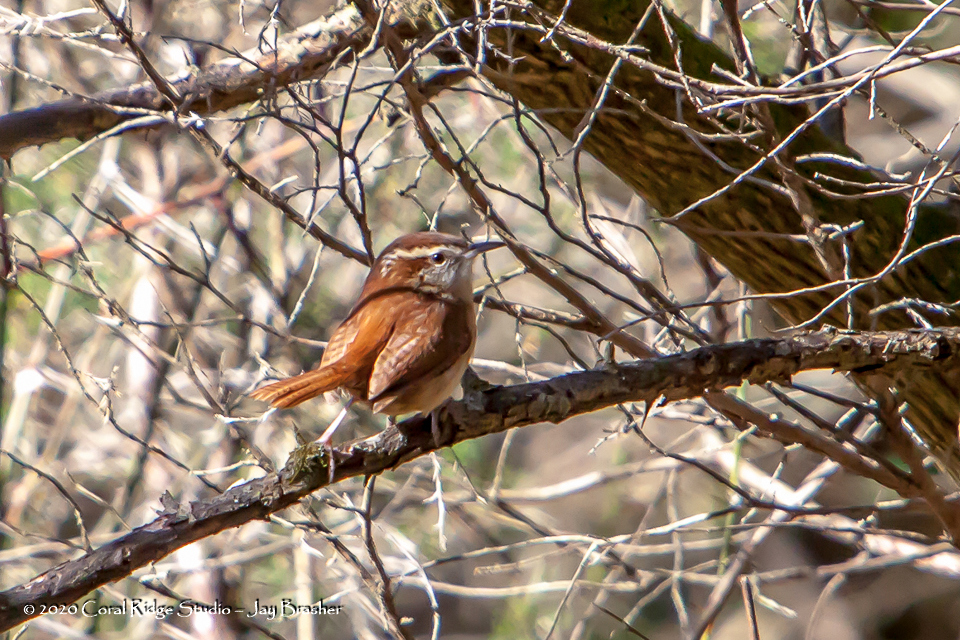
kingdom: Animalia
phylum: Chordata
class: Aves
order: Passeriformes
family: Troglodytidae
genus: Thryothorus
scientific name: Thryothorus ludovicianus
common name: Carolina wren
